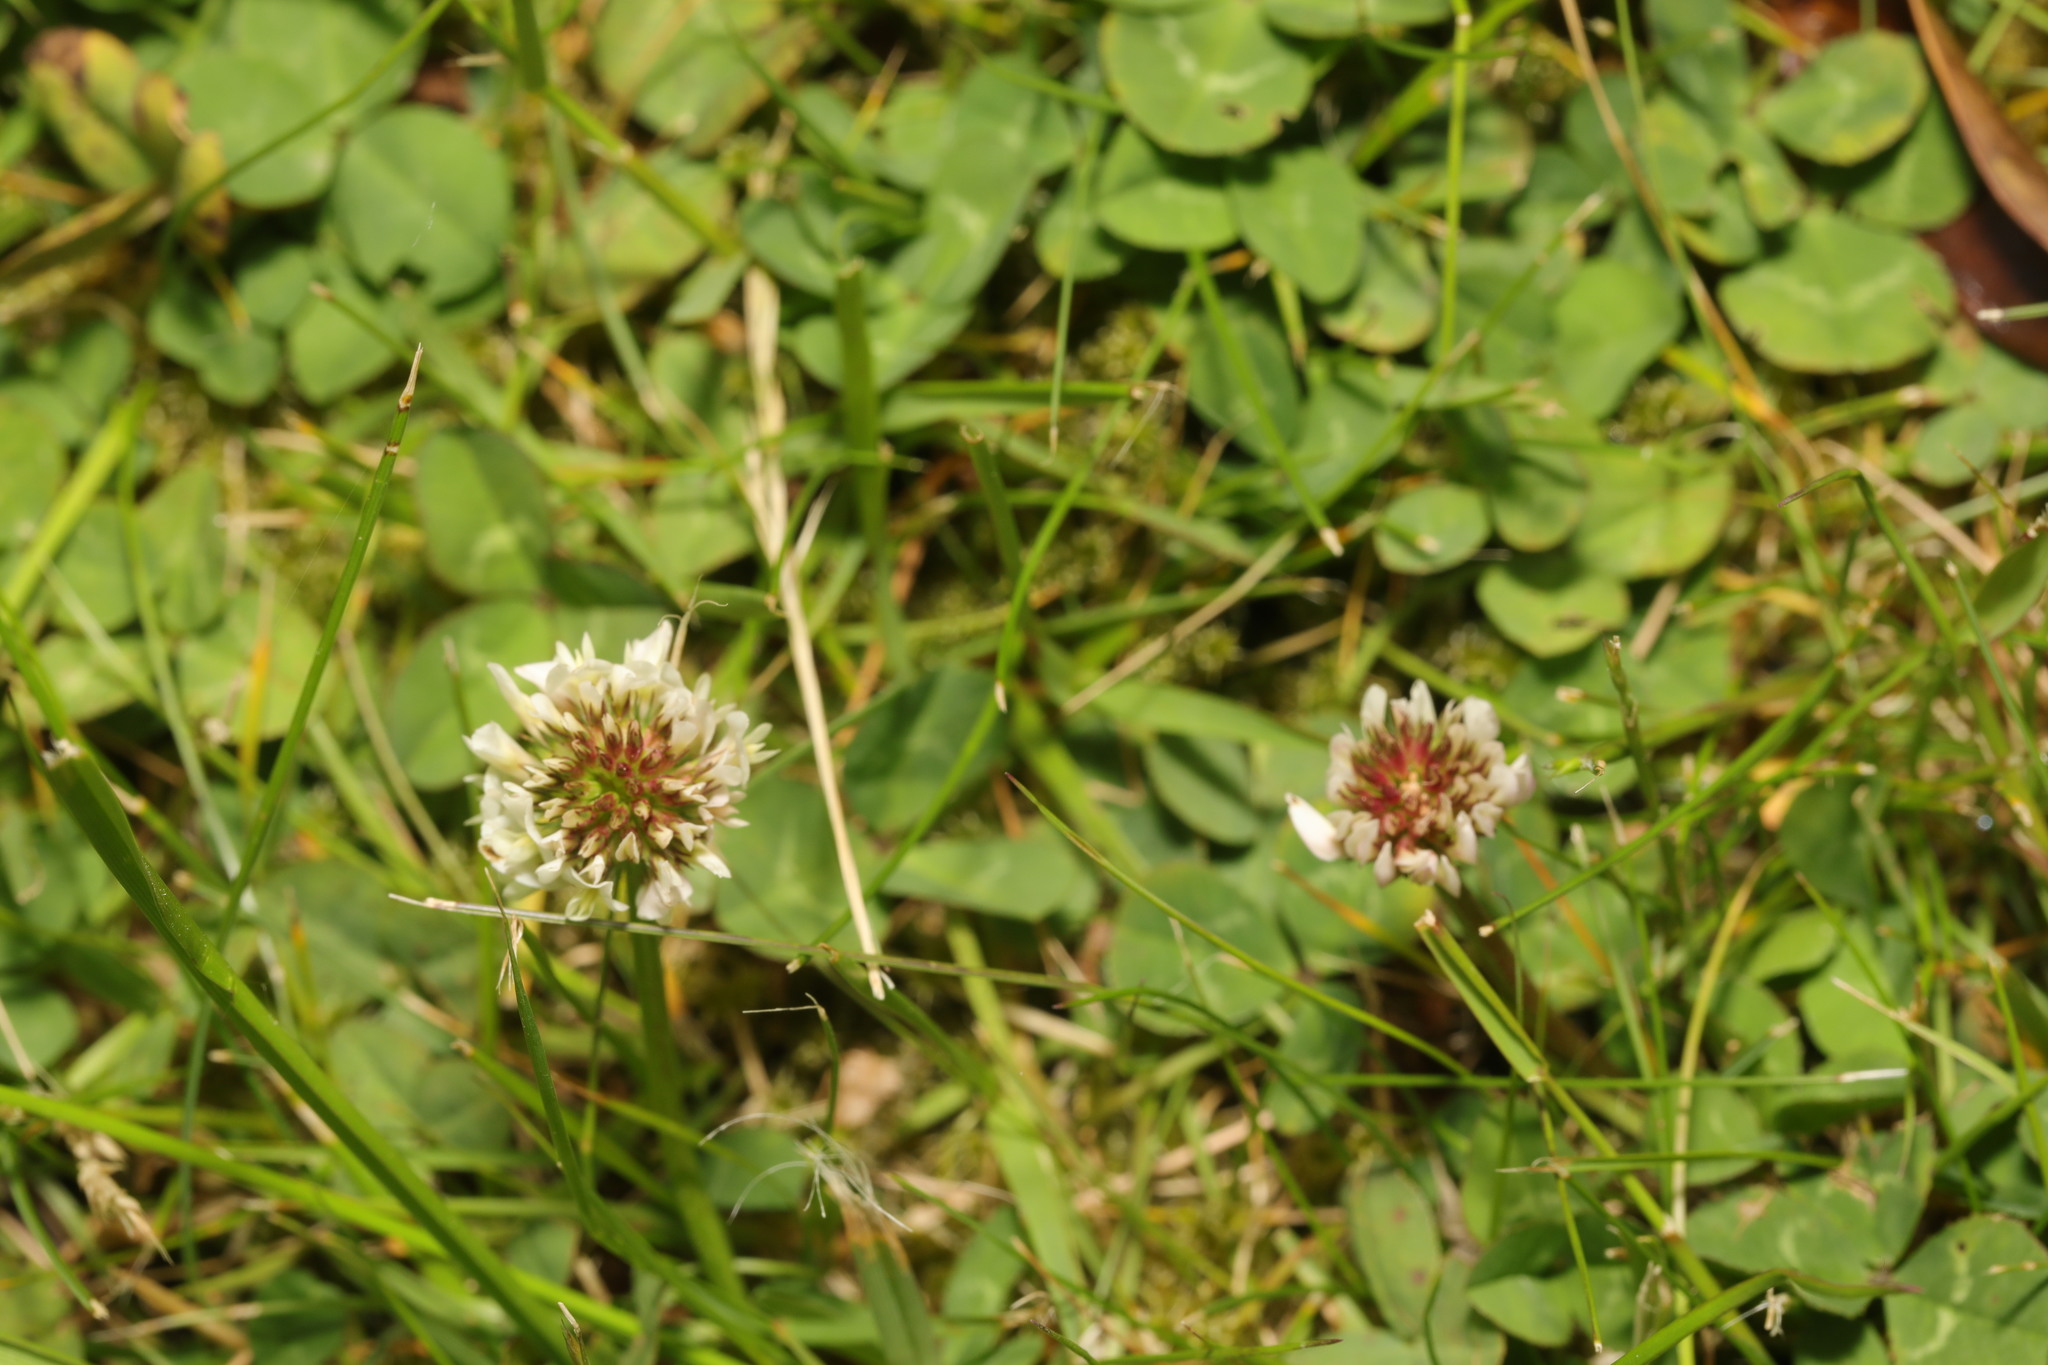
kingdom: Plantae
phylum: Tracheophyta
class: Magnoliopsida
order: Fabales
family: Fabaceae
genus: Trifolium
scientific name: Trifolium repens
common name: White clover
